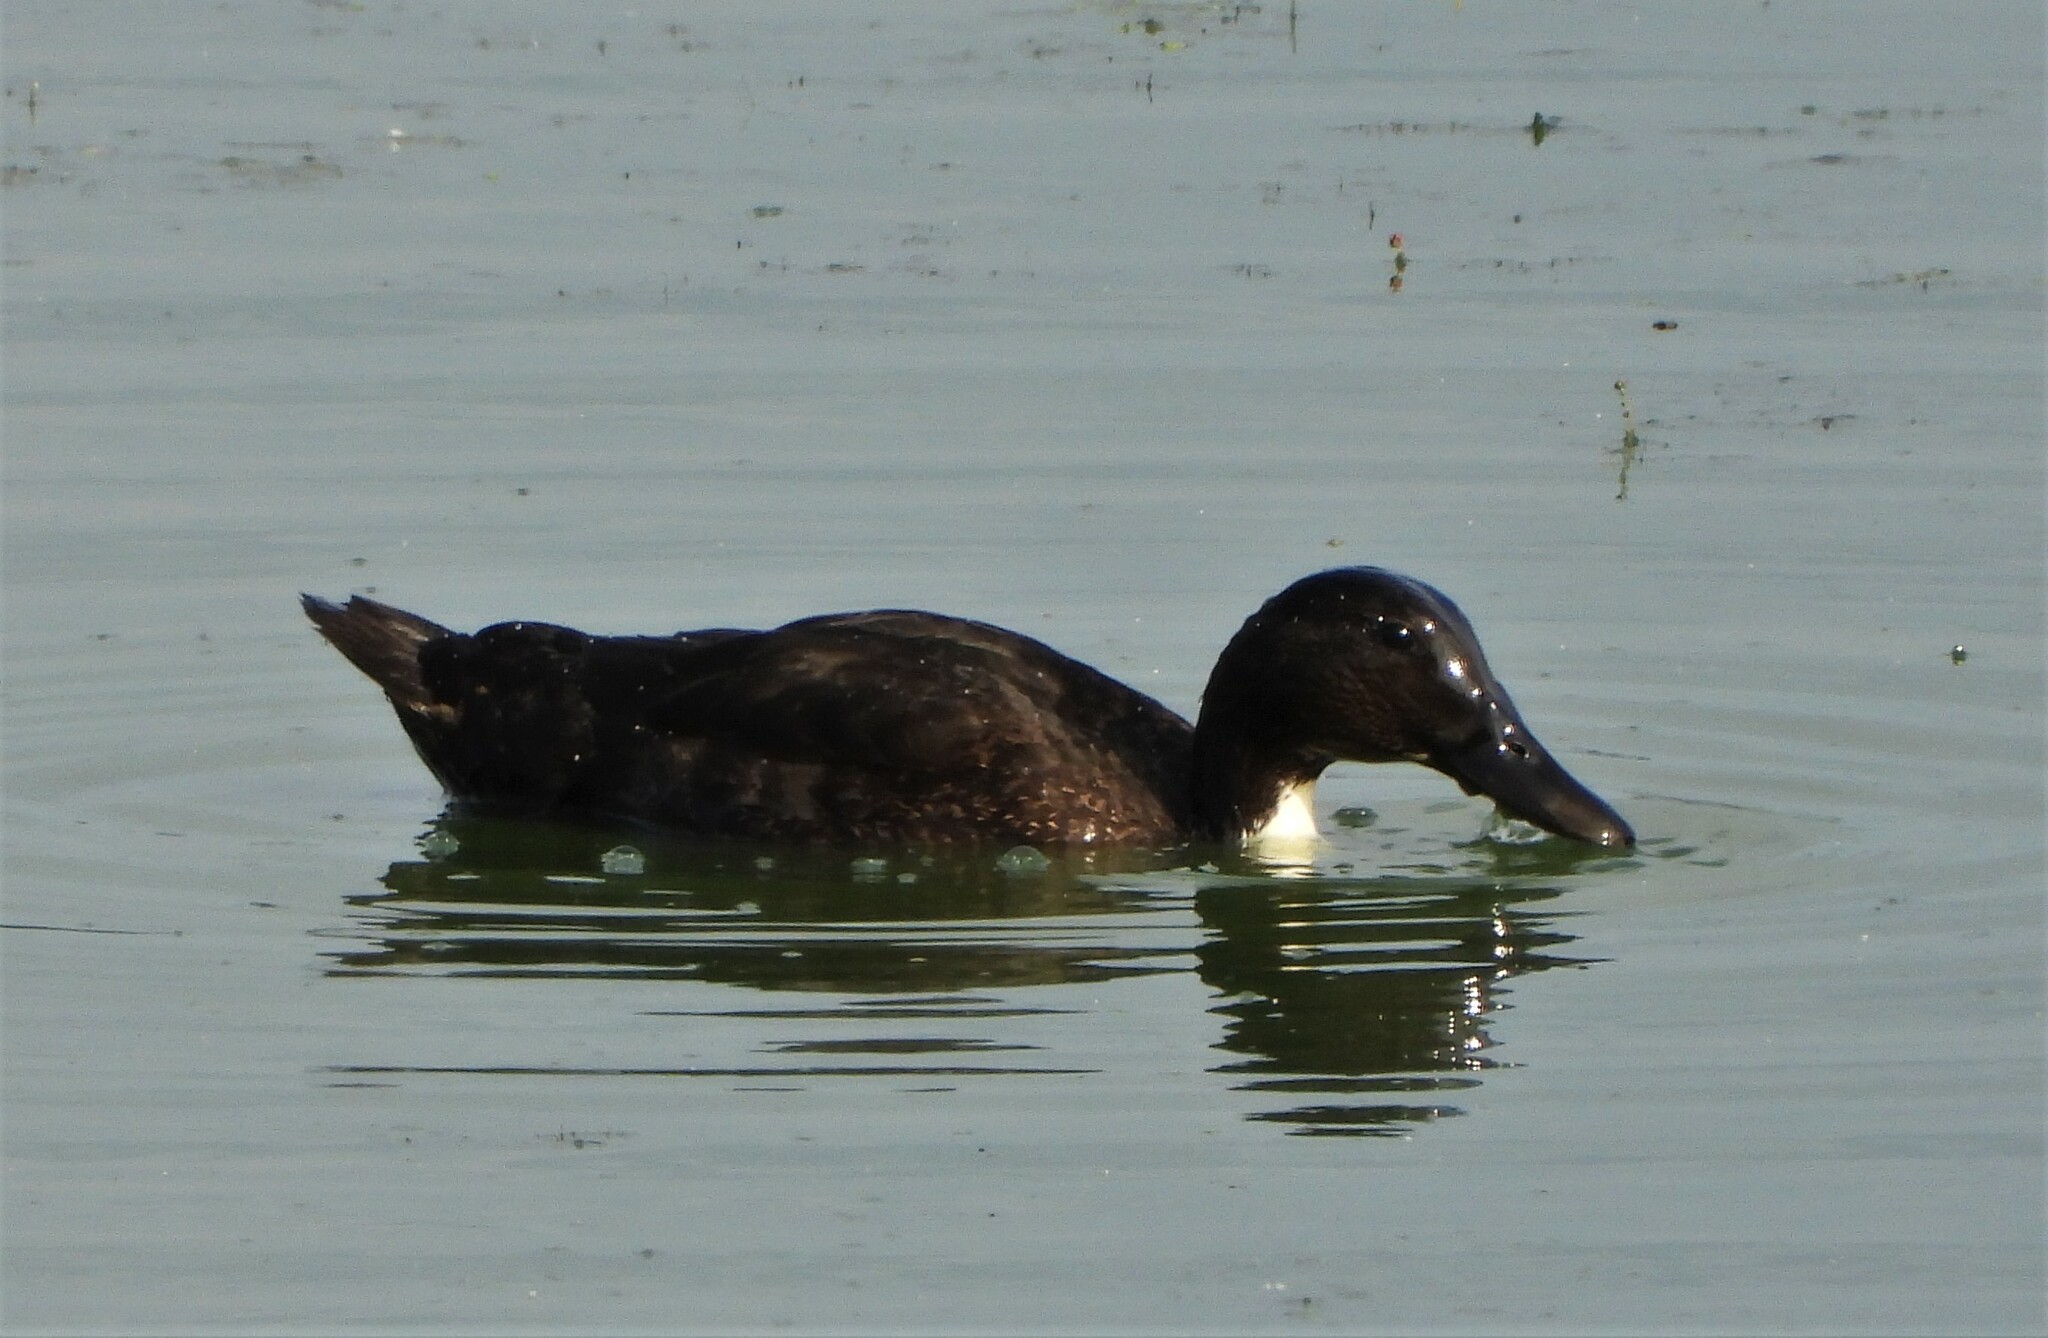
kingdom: Animalia
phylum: Chordata
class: Aves
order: Anseriformes
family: Anatidae
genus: Anas
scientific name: Anas platyrhynchos
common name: Mallard
